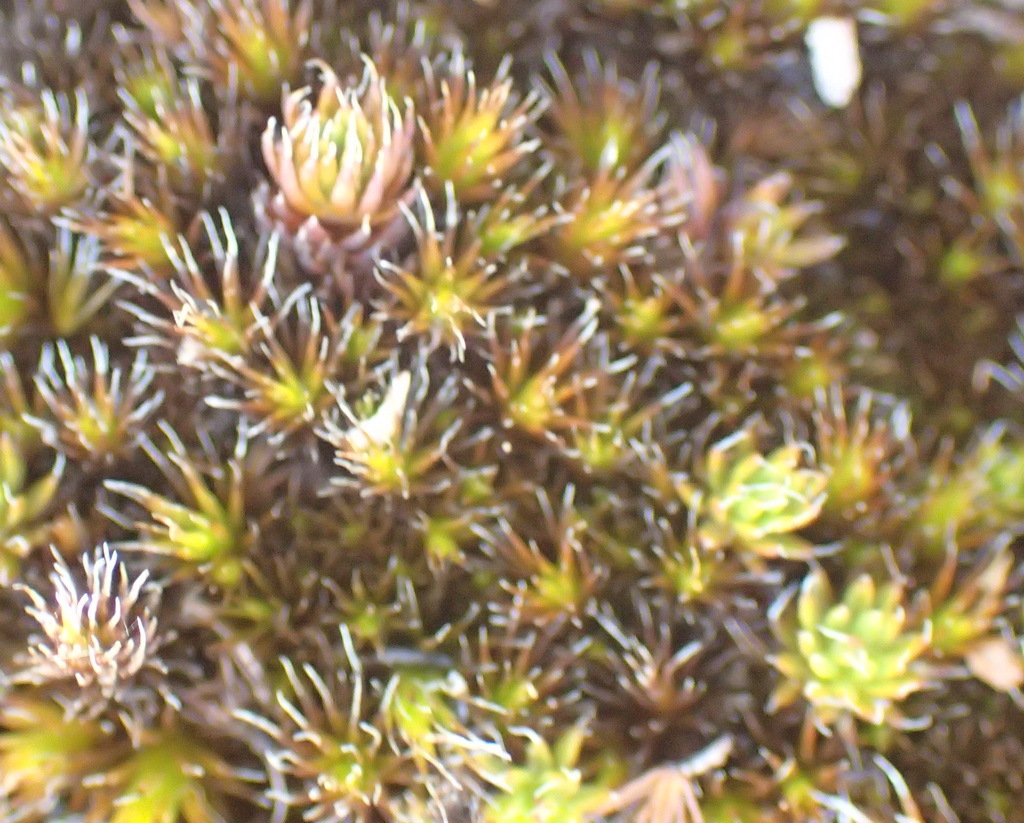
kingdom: Plantae
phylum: Bryophyta
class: Polytrichopsida
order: Polytrichales
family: Polytrichaceae
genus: Polytrichum
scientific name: Polytrichum piliferum
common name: Bristly haircap
